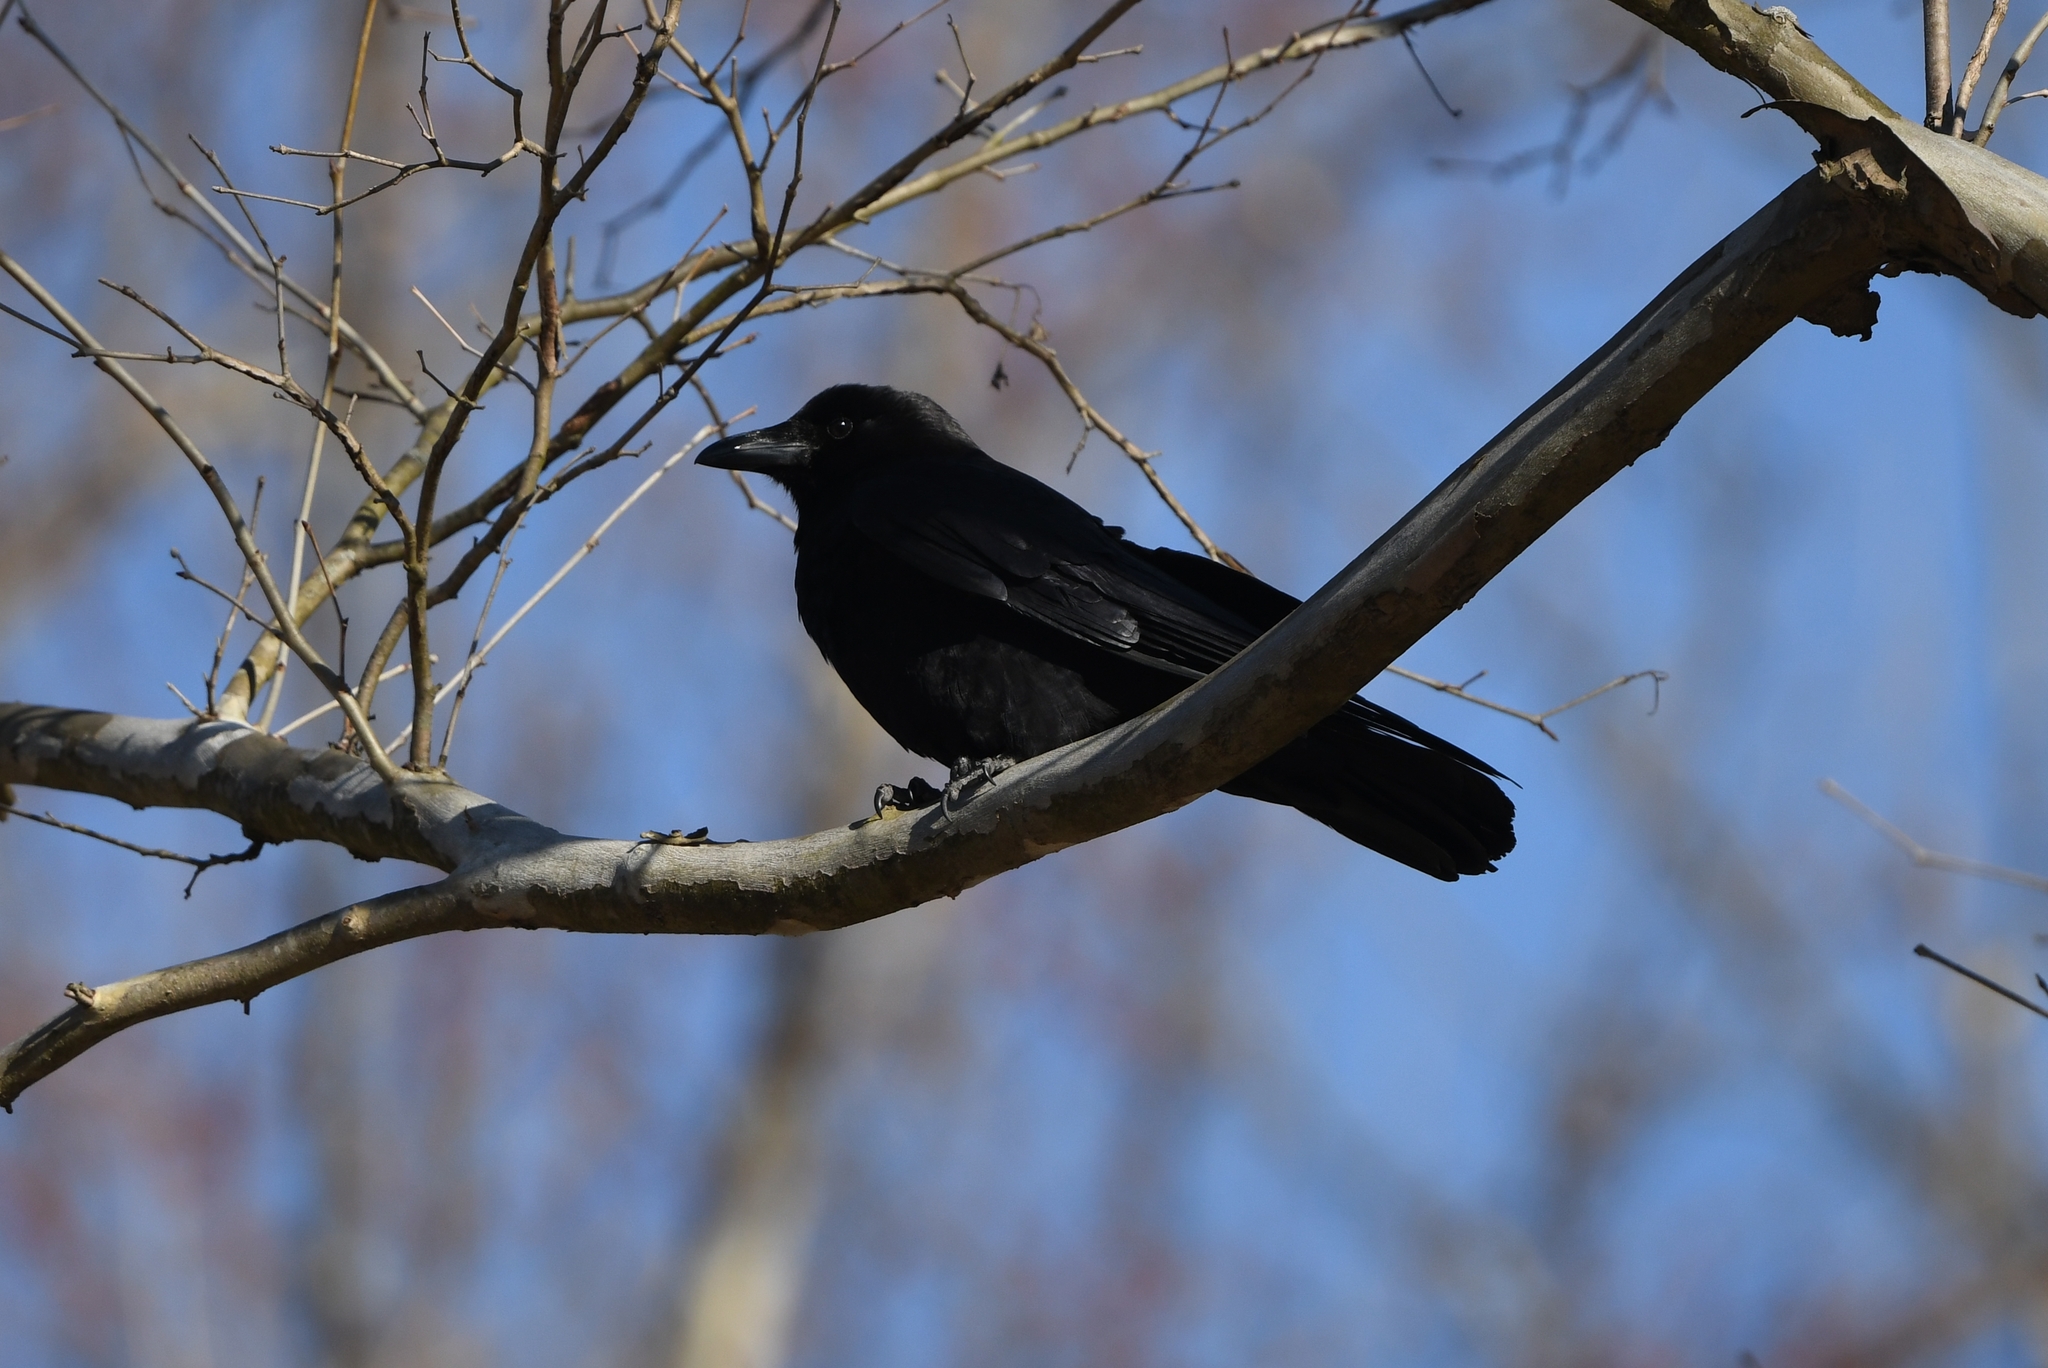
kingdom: Animalia
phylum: Chordata
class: Aves
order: Passeriformes
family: Corvidae
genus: Corvus
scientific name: Corvus ossifragus
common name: Fish crow
